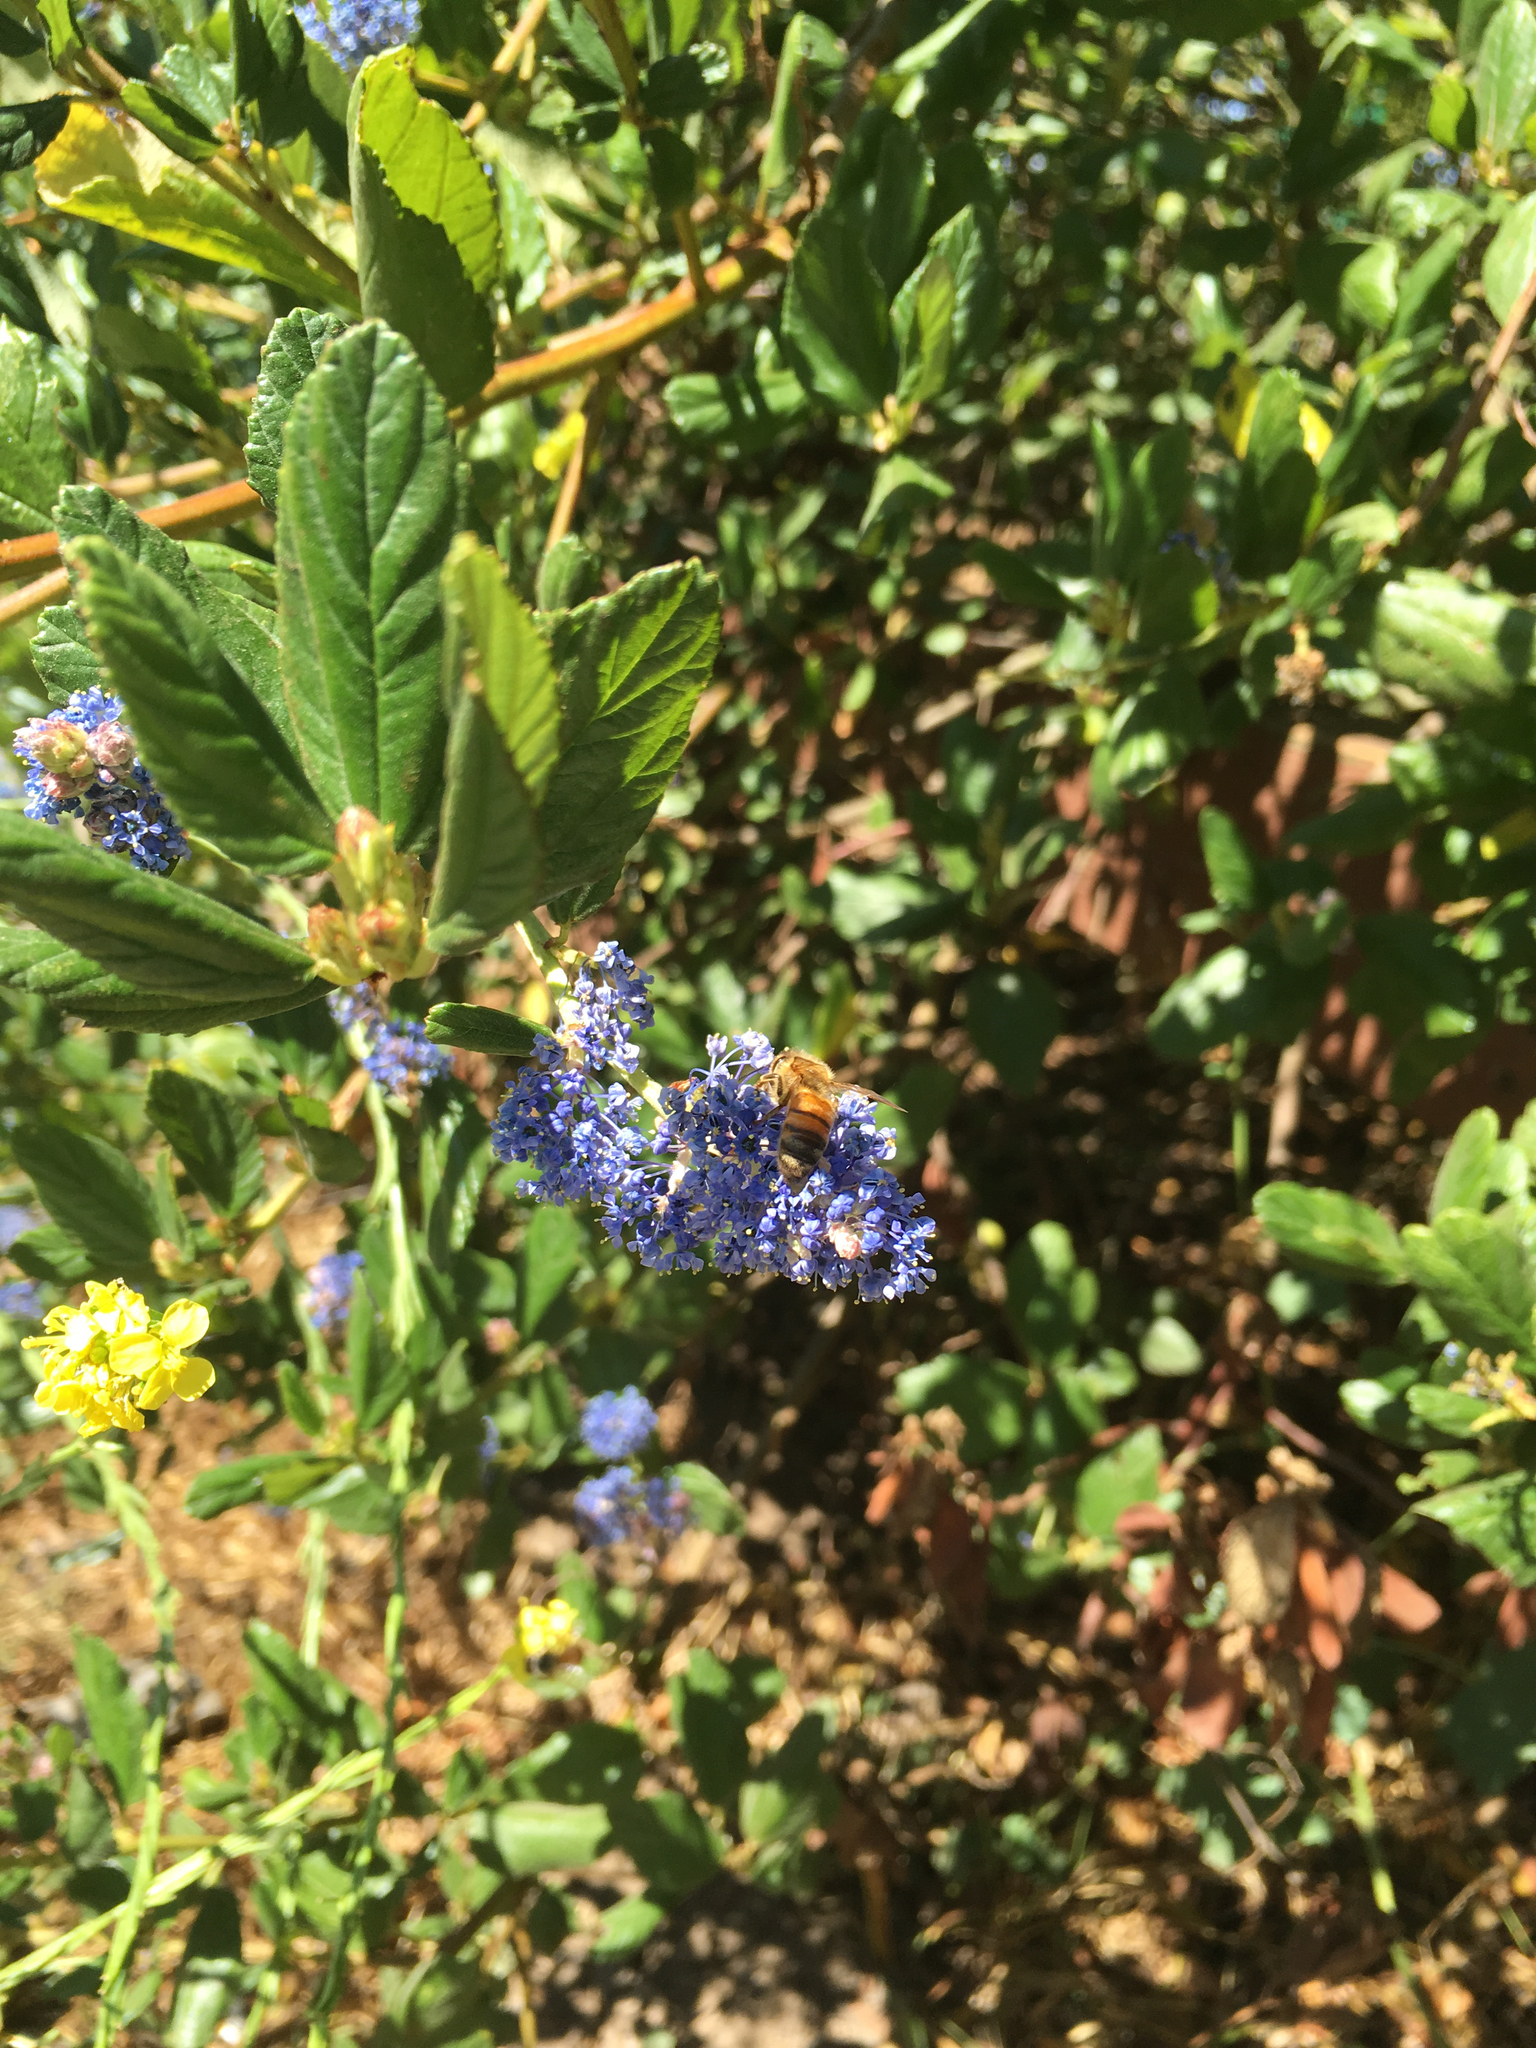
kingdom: Animalia
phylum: Arthropoda
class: Insecta
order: Hymenoptera
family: Apidae
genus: Apis
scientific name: Apis mellifera
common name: Honey bee
